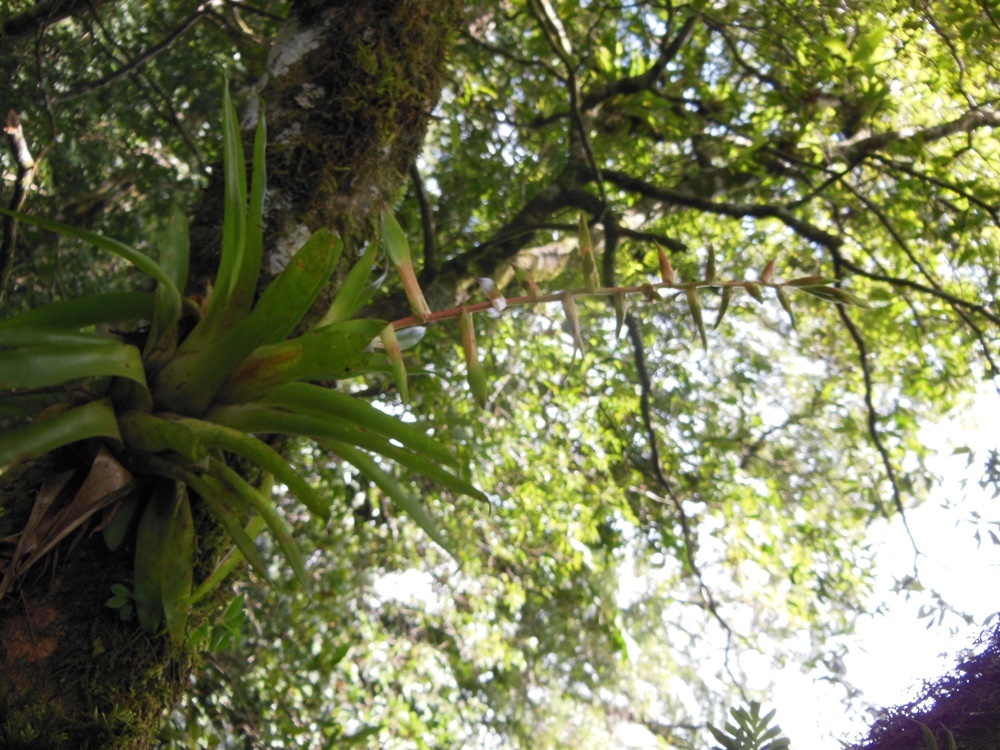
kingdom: Plantae
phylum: Tracheophyta
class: Liliopsida
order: Poales
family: Bromeliaceae
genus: Tillandsia
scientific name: Tillandsia orogenes
